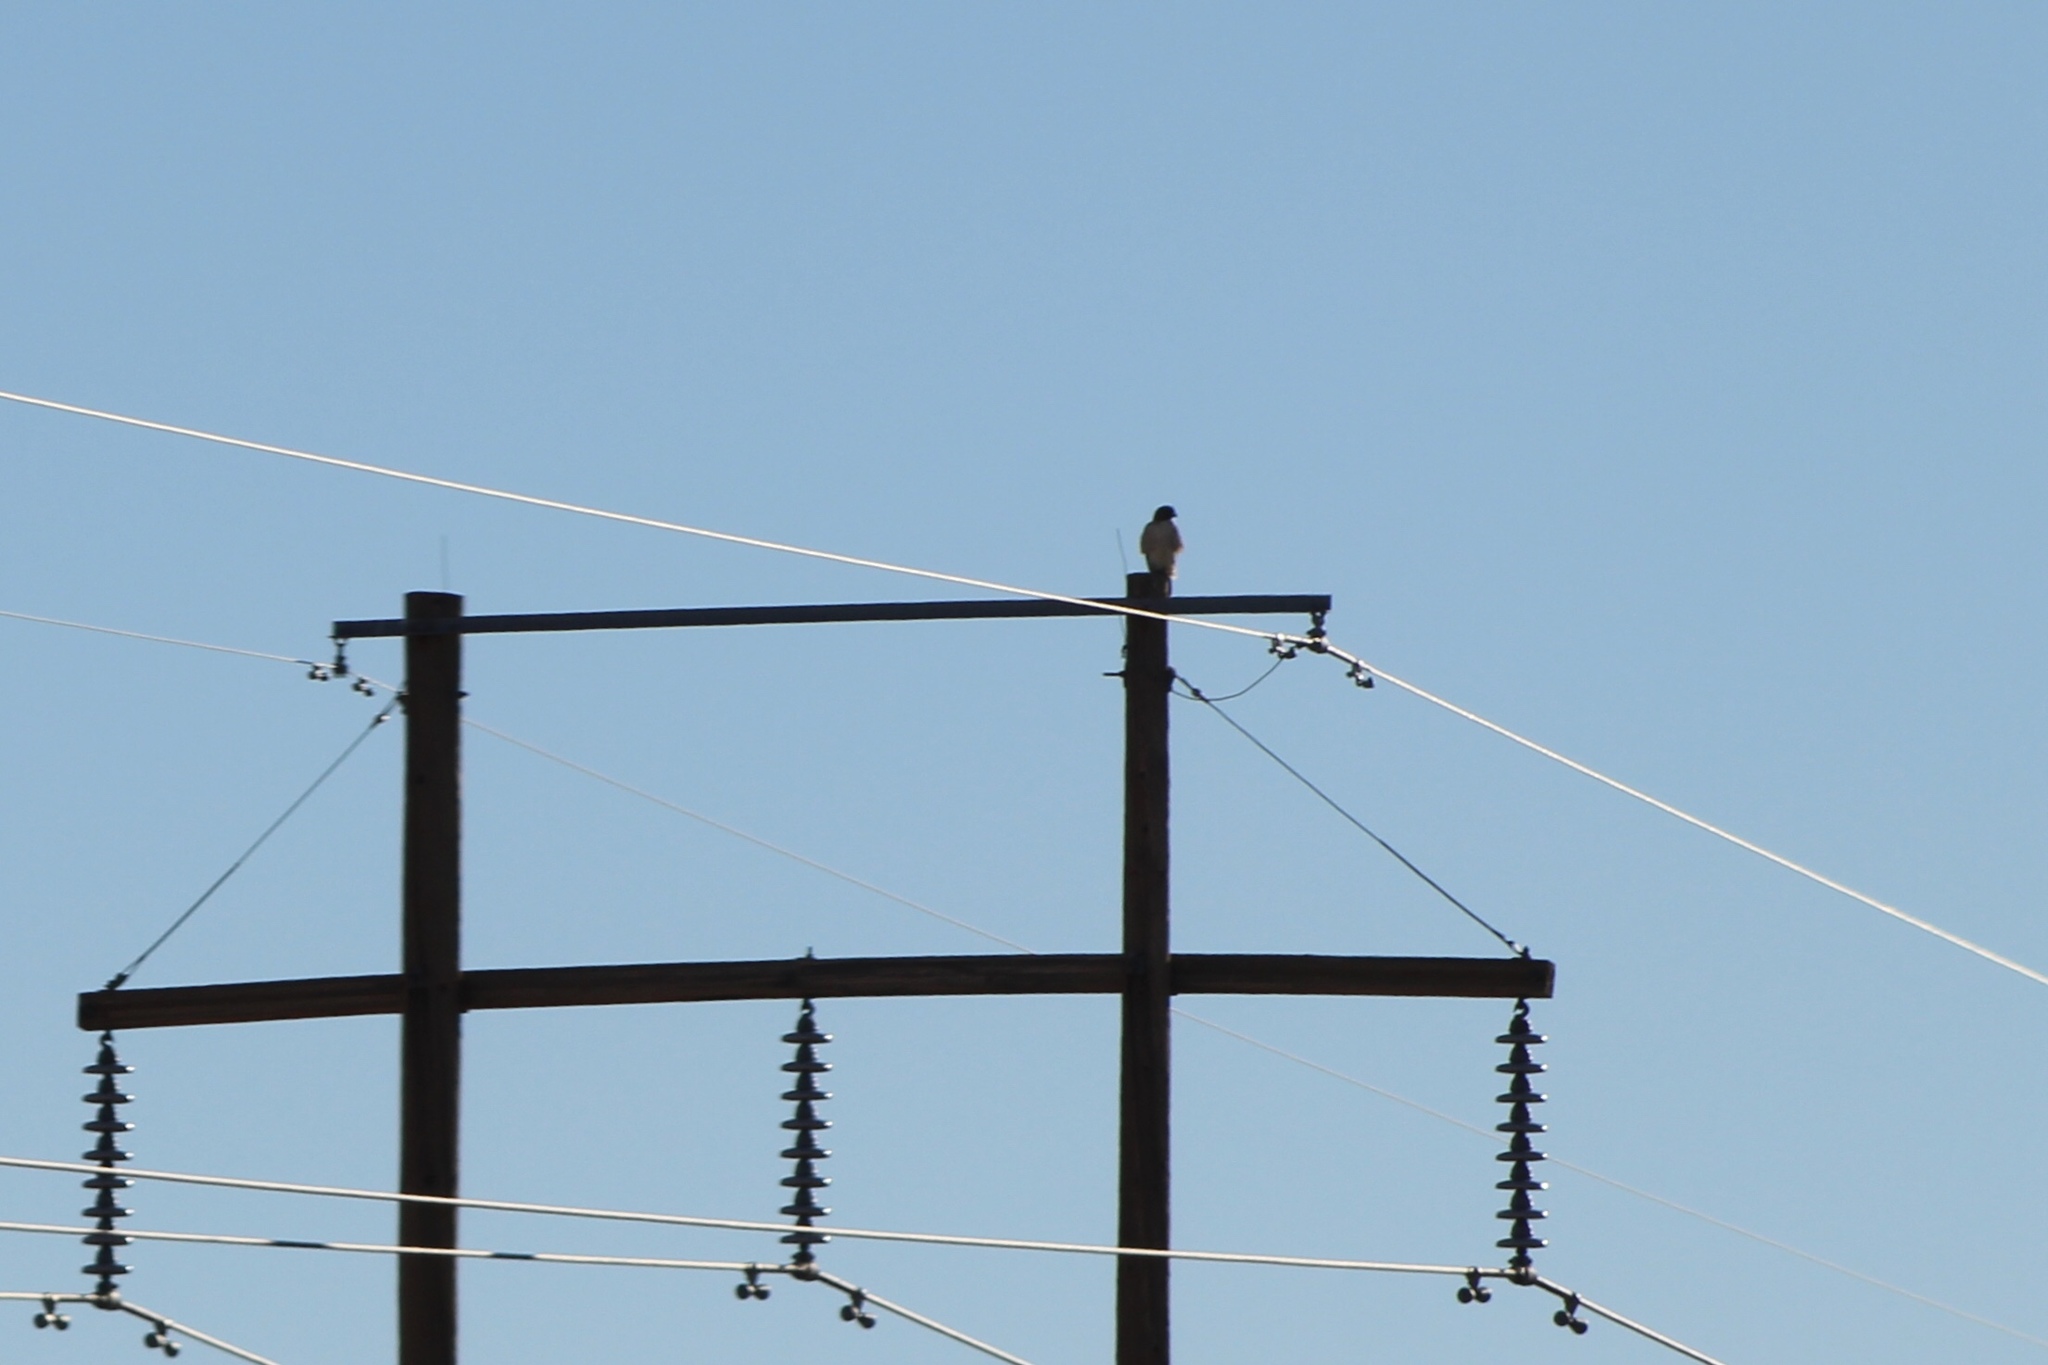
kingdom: Animalia
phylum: Chordata
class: Aves
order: Accipitriformes
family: Accipitridae
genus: Buteo
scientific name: Buteo jamaicensis
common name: Red-tailed hawk
